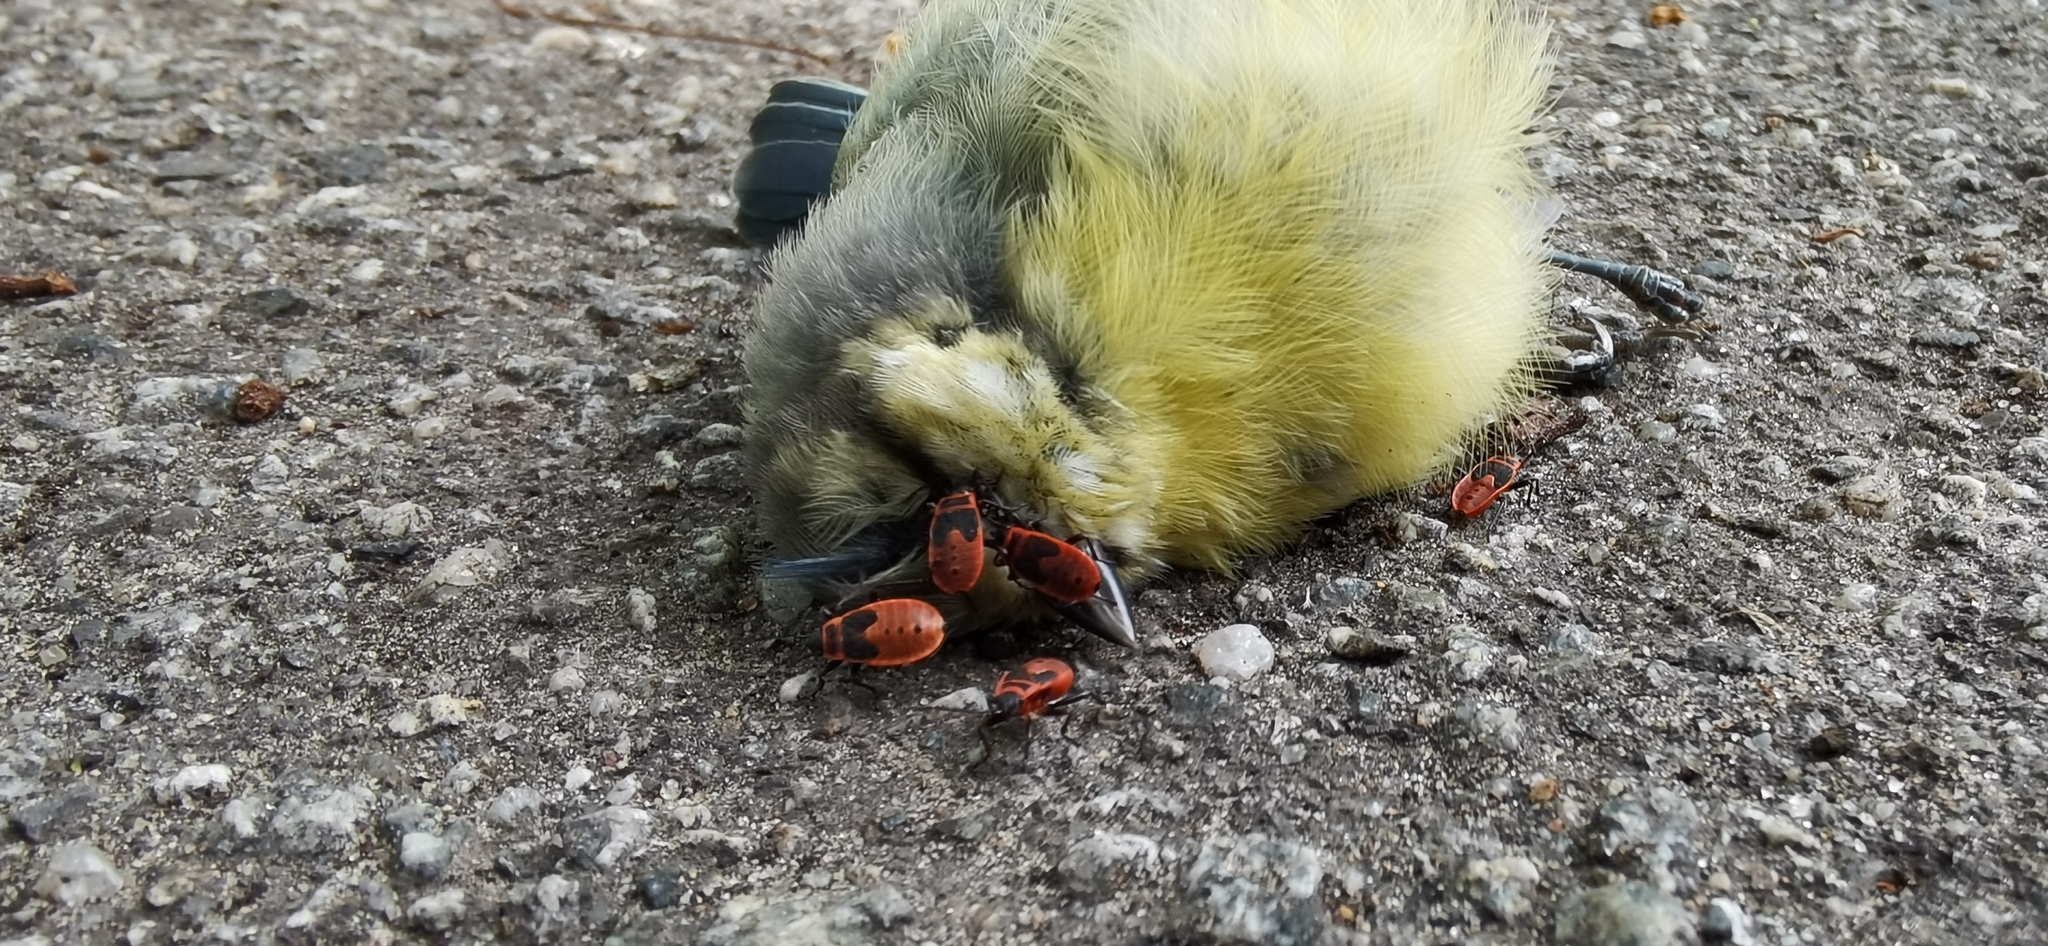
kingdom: Animalia
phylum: Chordata
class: Aves
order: Passeriformes
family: Paridae
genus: Cyanistes
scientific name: Cyanistes caeruleus
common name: Eurasian blue tit
